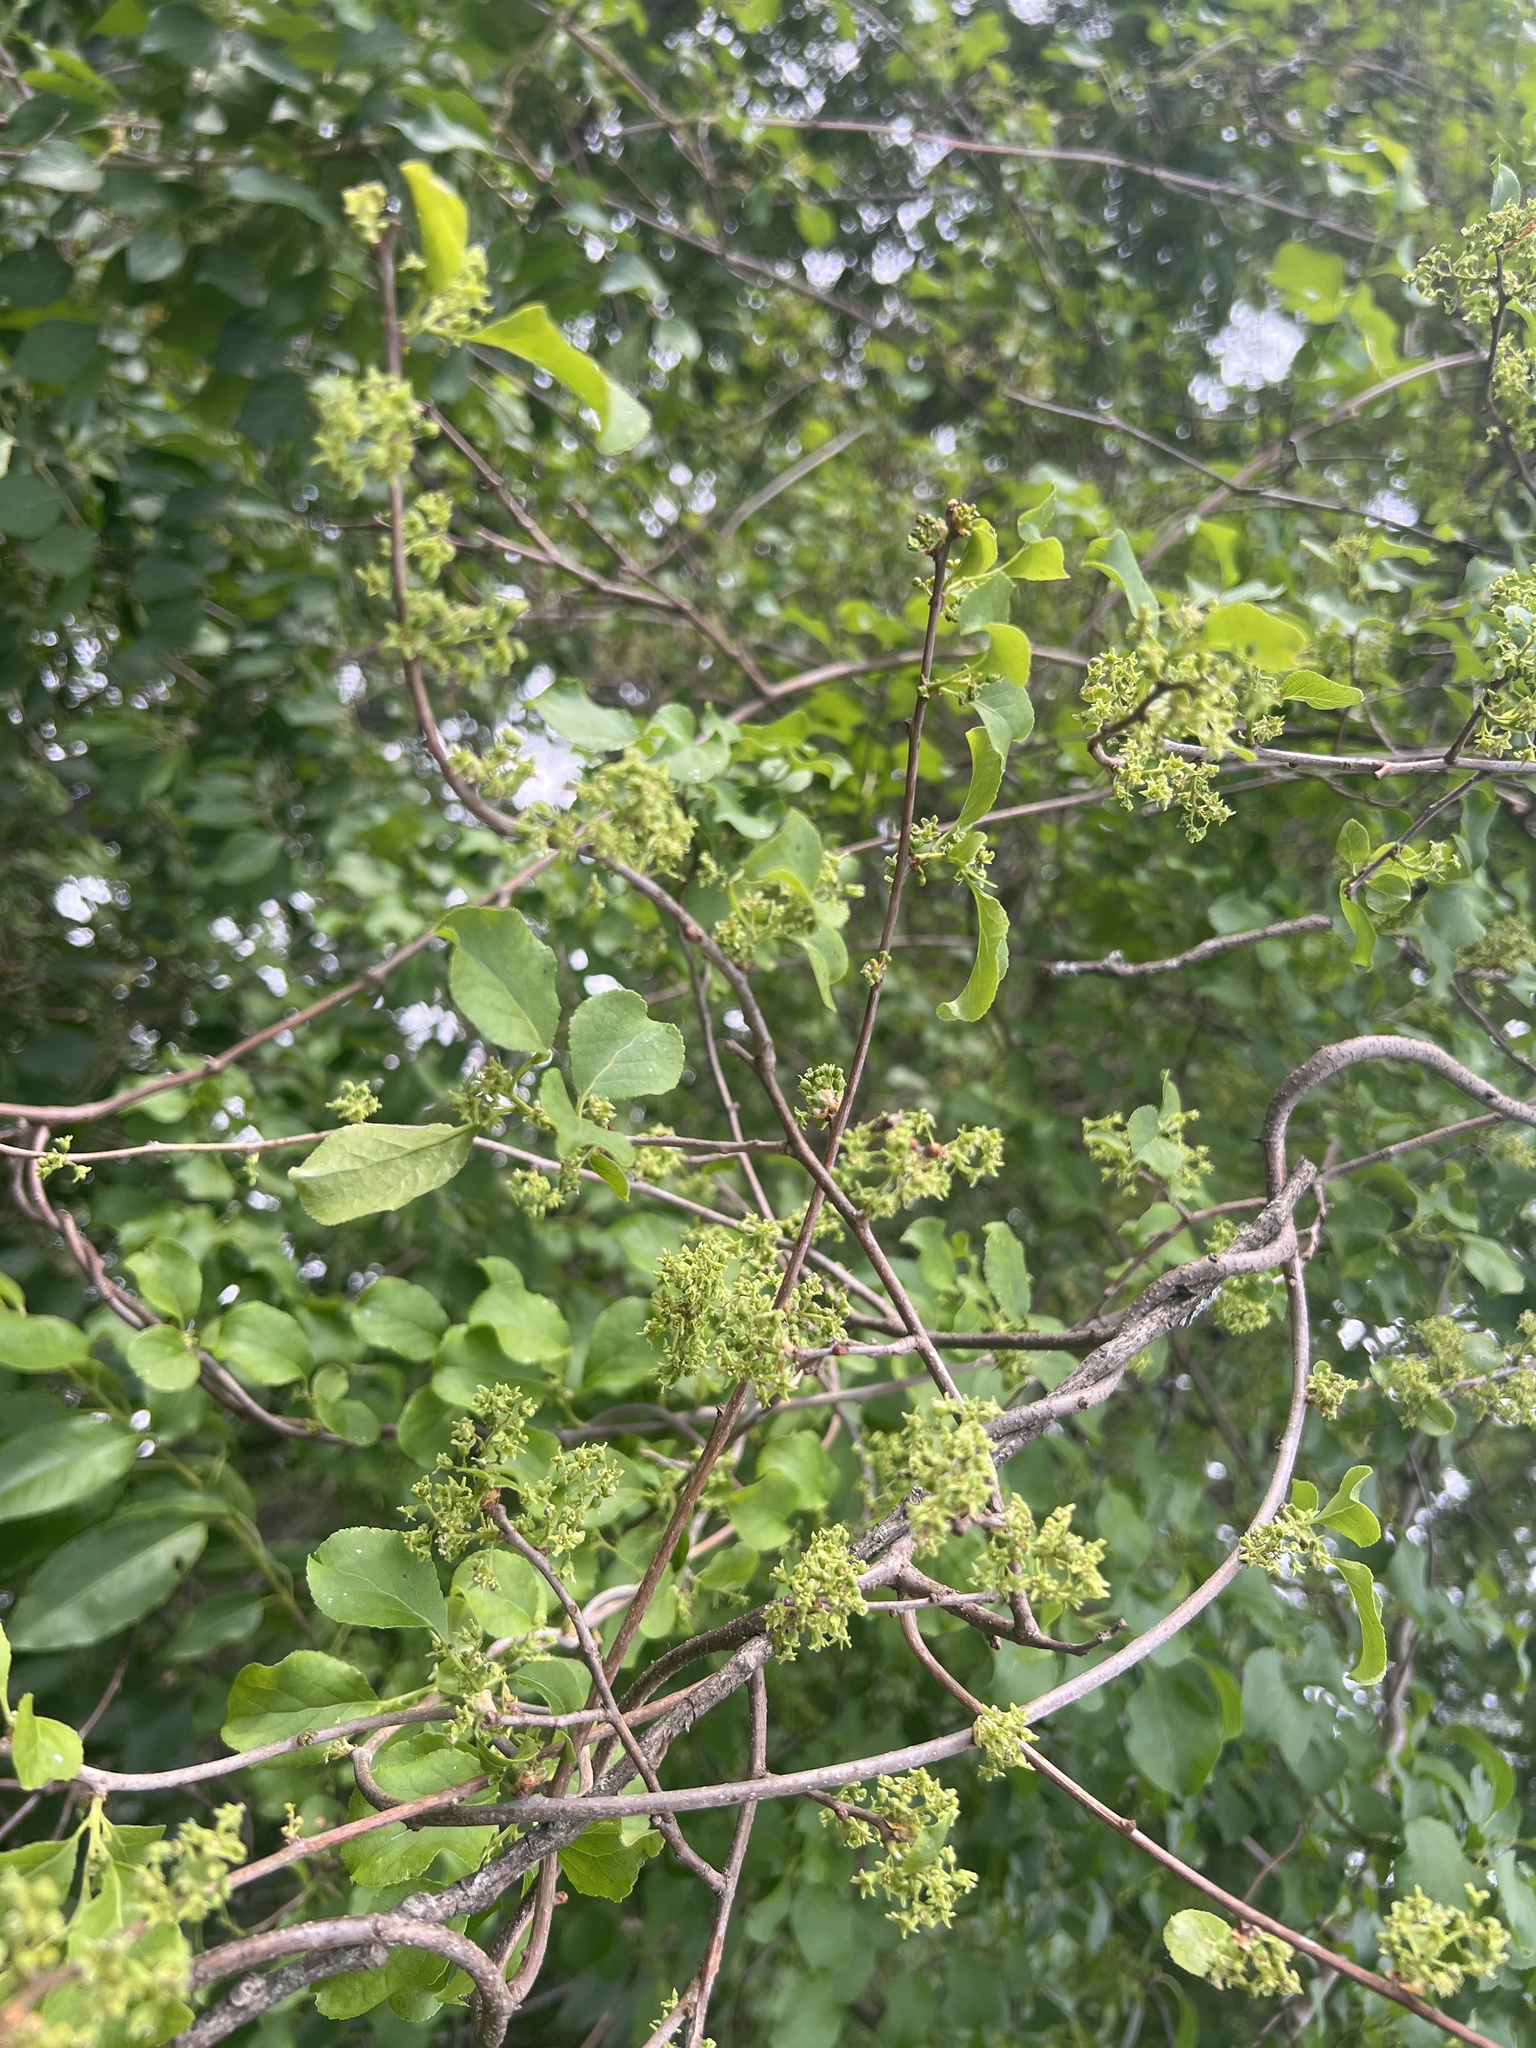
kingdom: Plantae
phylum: Tracheophyta
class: Magnoliopsida
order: Celastrales
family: Celastraceae
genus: Celastrus
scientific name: Celastrus orbiculatus
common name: Oriental bittersweet
